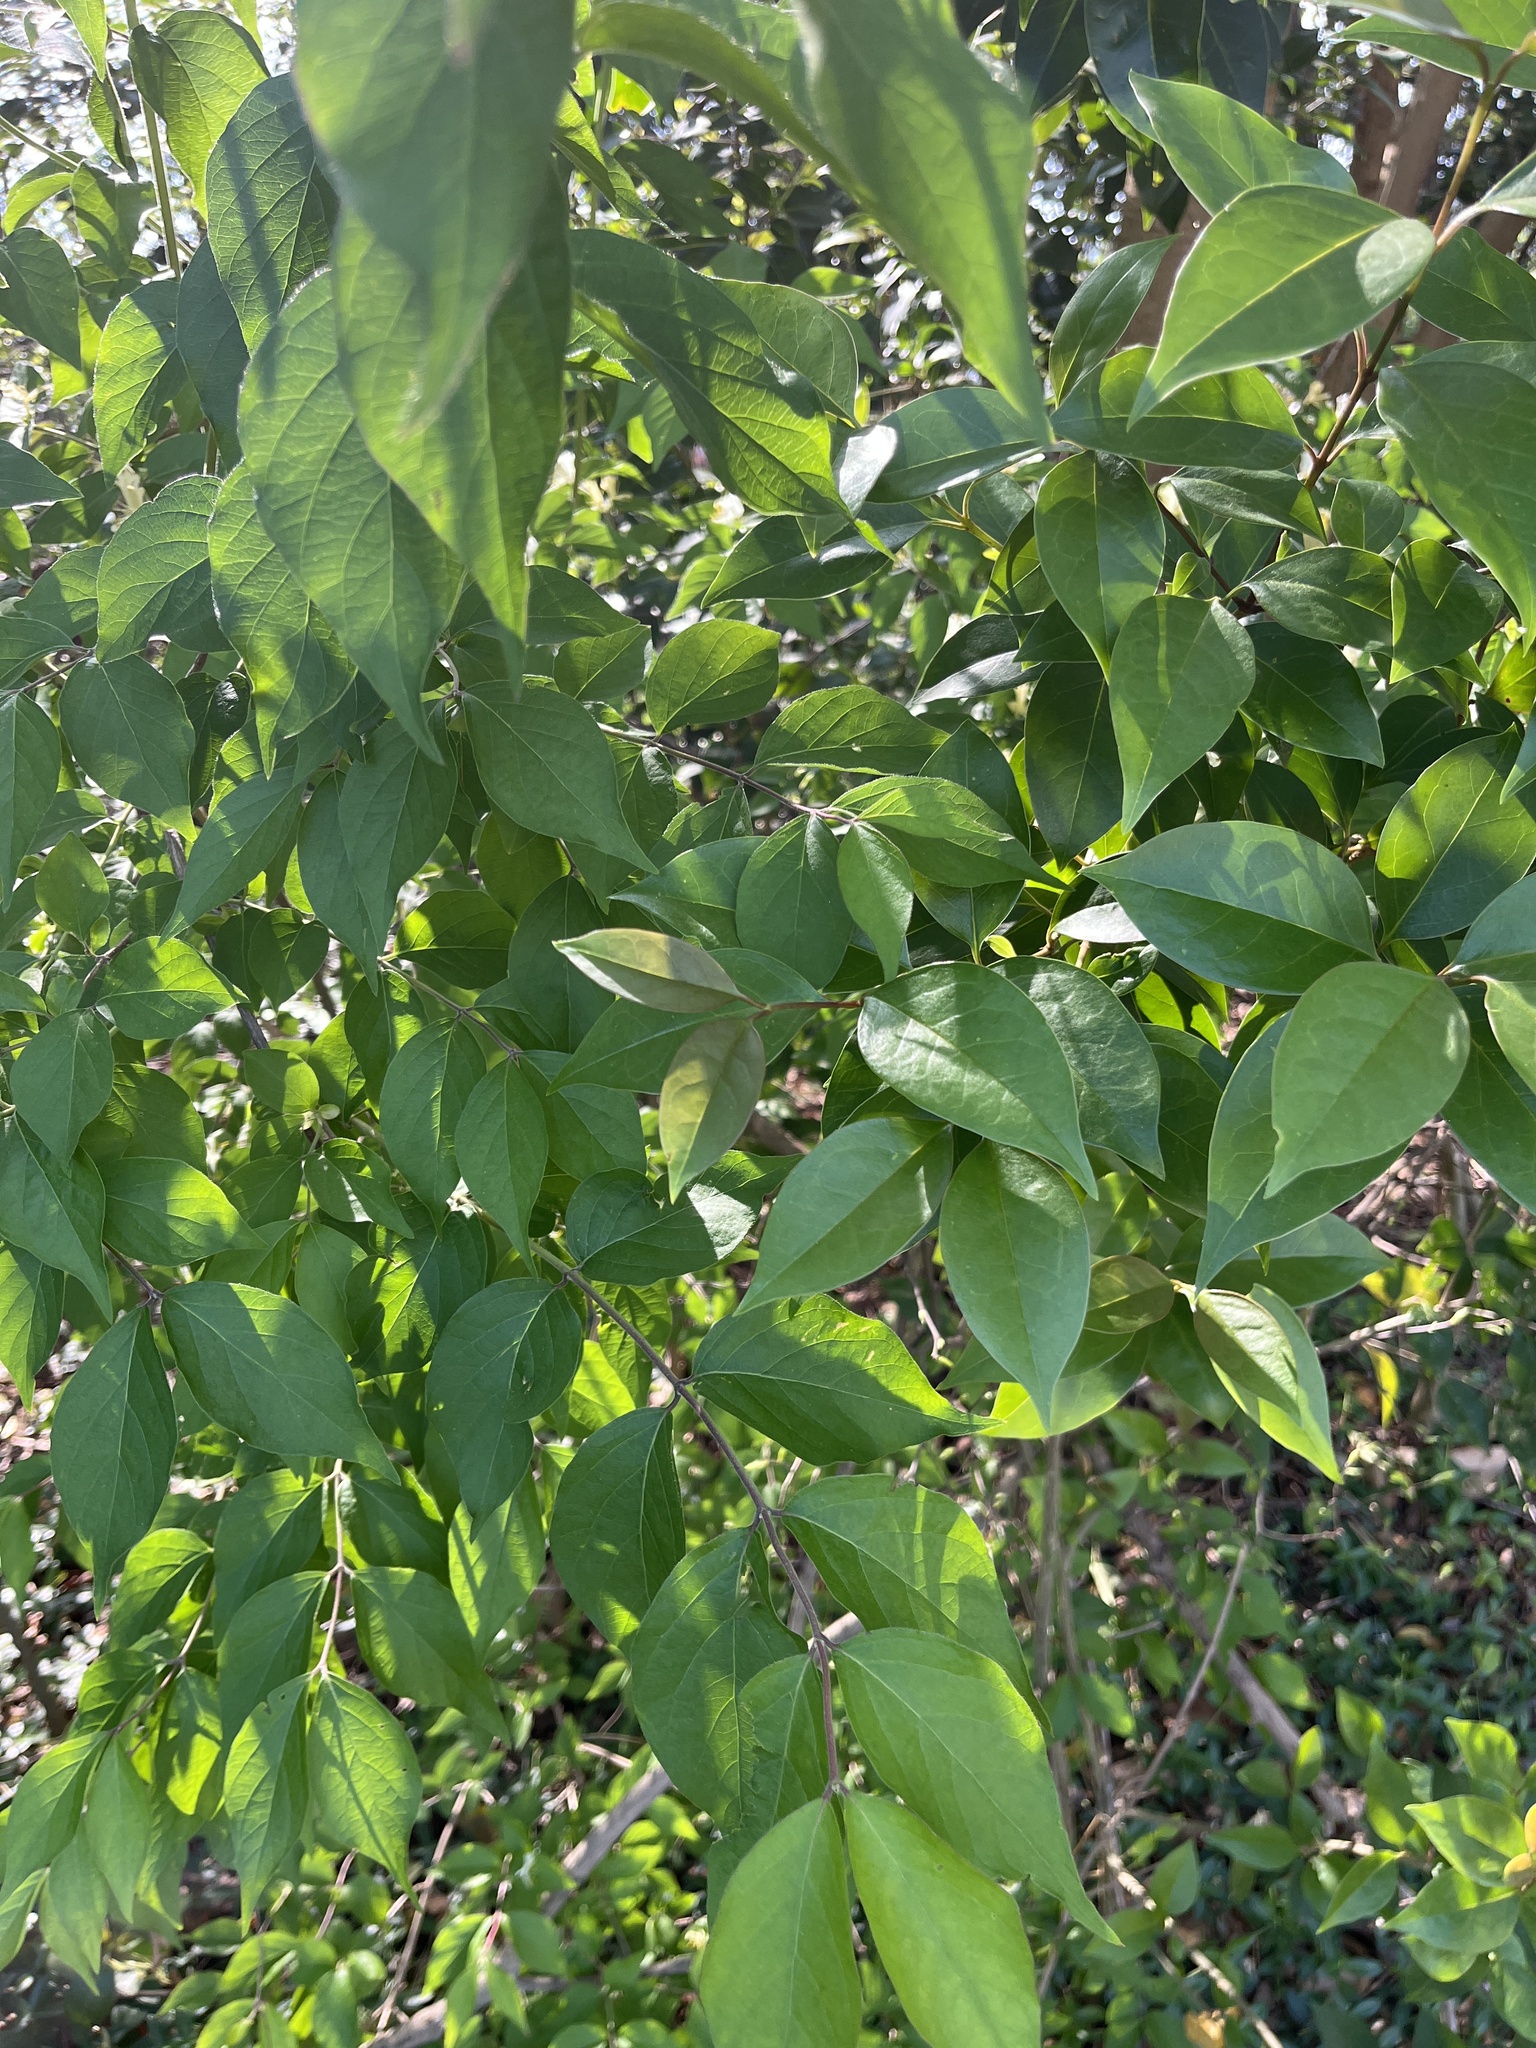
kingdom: Plantae
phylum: Tracheophyta
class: Magnoliopsida
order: Dipsacales
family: Caprifoliaceae
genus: Lonicera
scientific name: Lonicera maackii
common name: Amur honeysuckle
